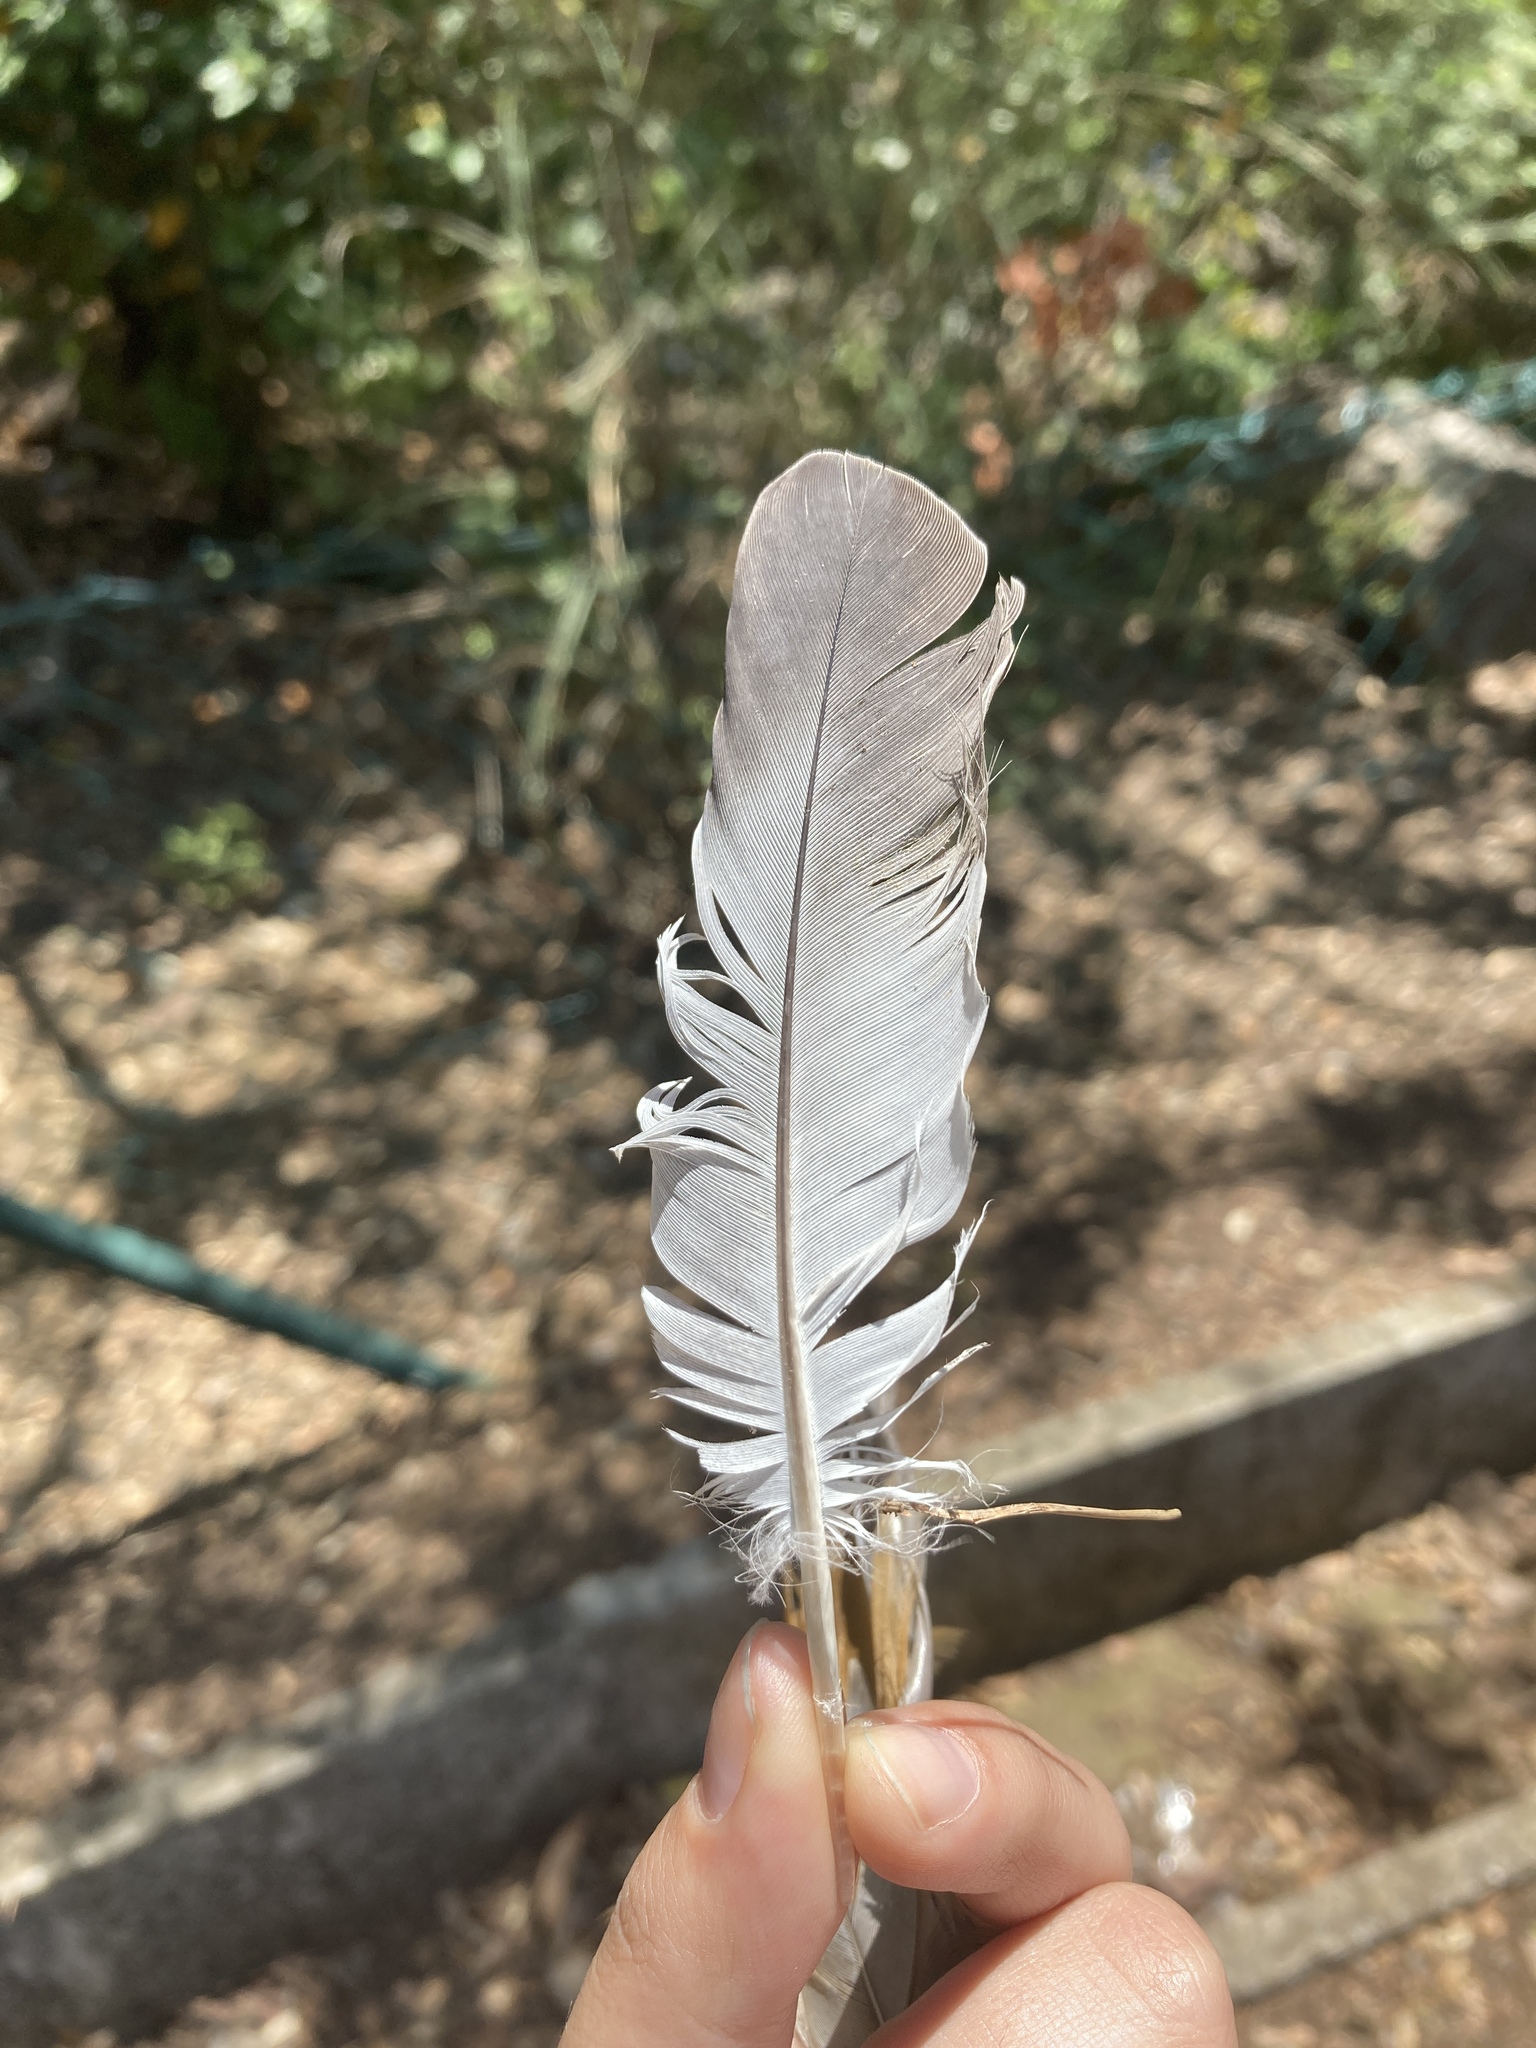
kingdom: Animalia
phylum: Chordata
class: Aves
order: Columbiformes
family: Columbidae
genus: Columba
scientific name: Columba livia
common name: Rock pigeon
